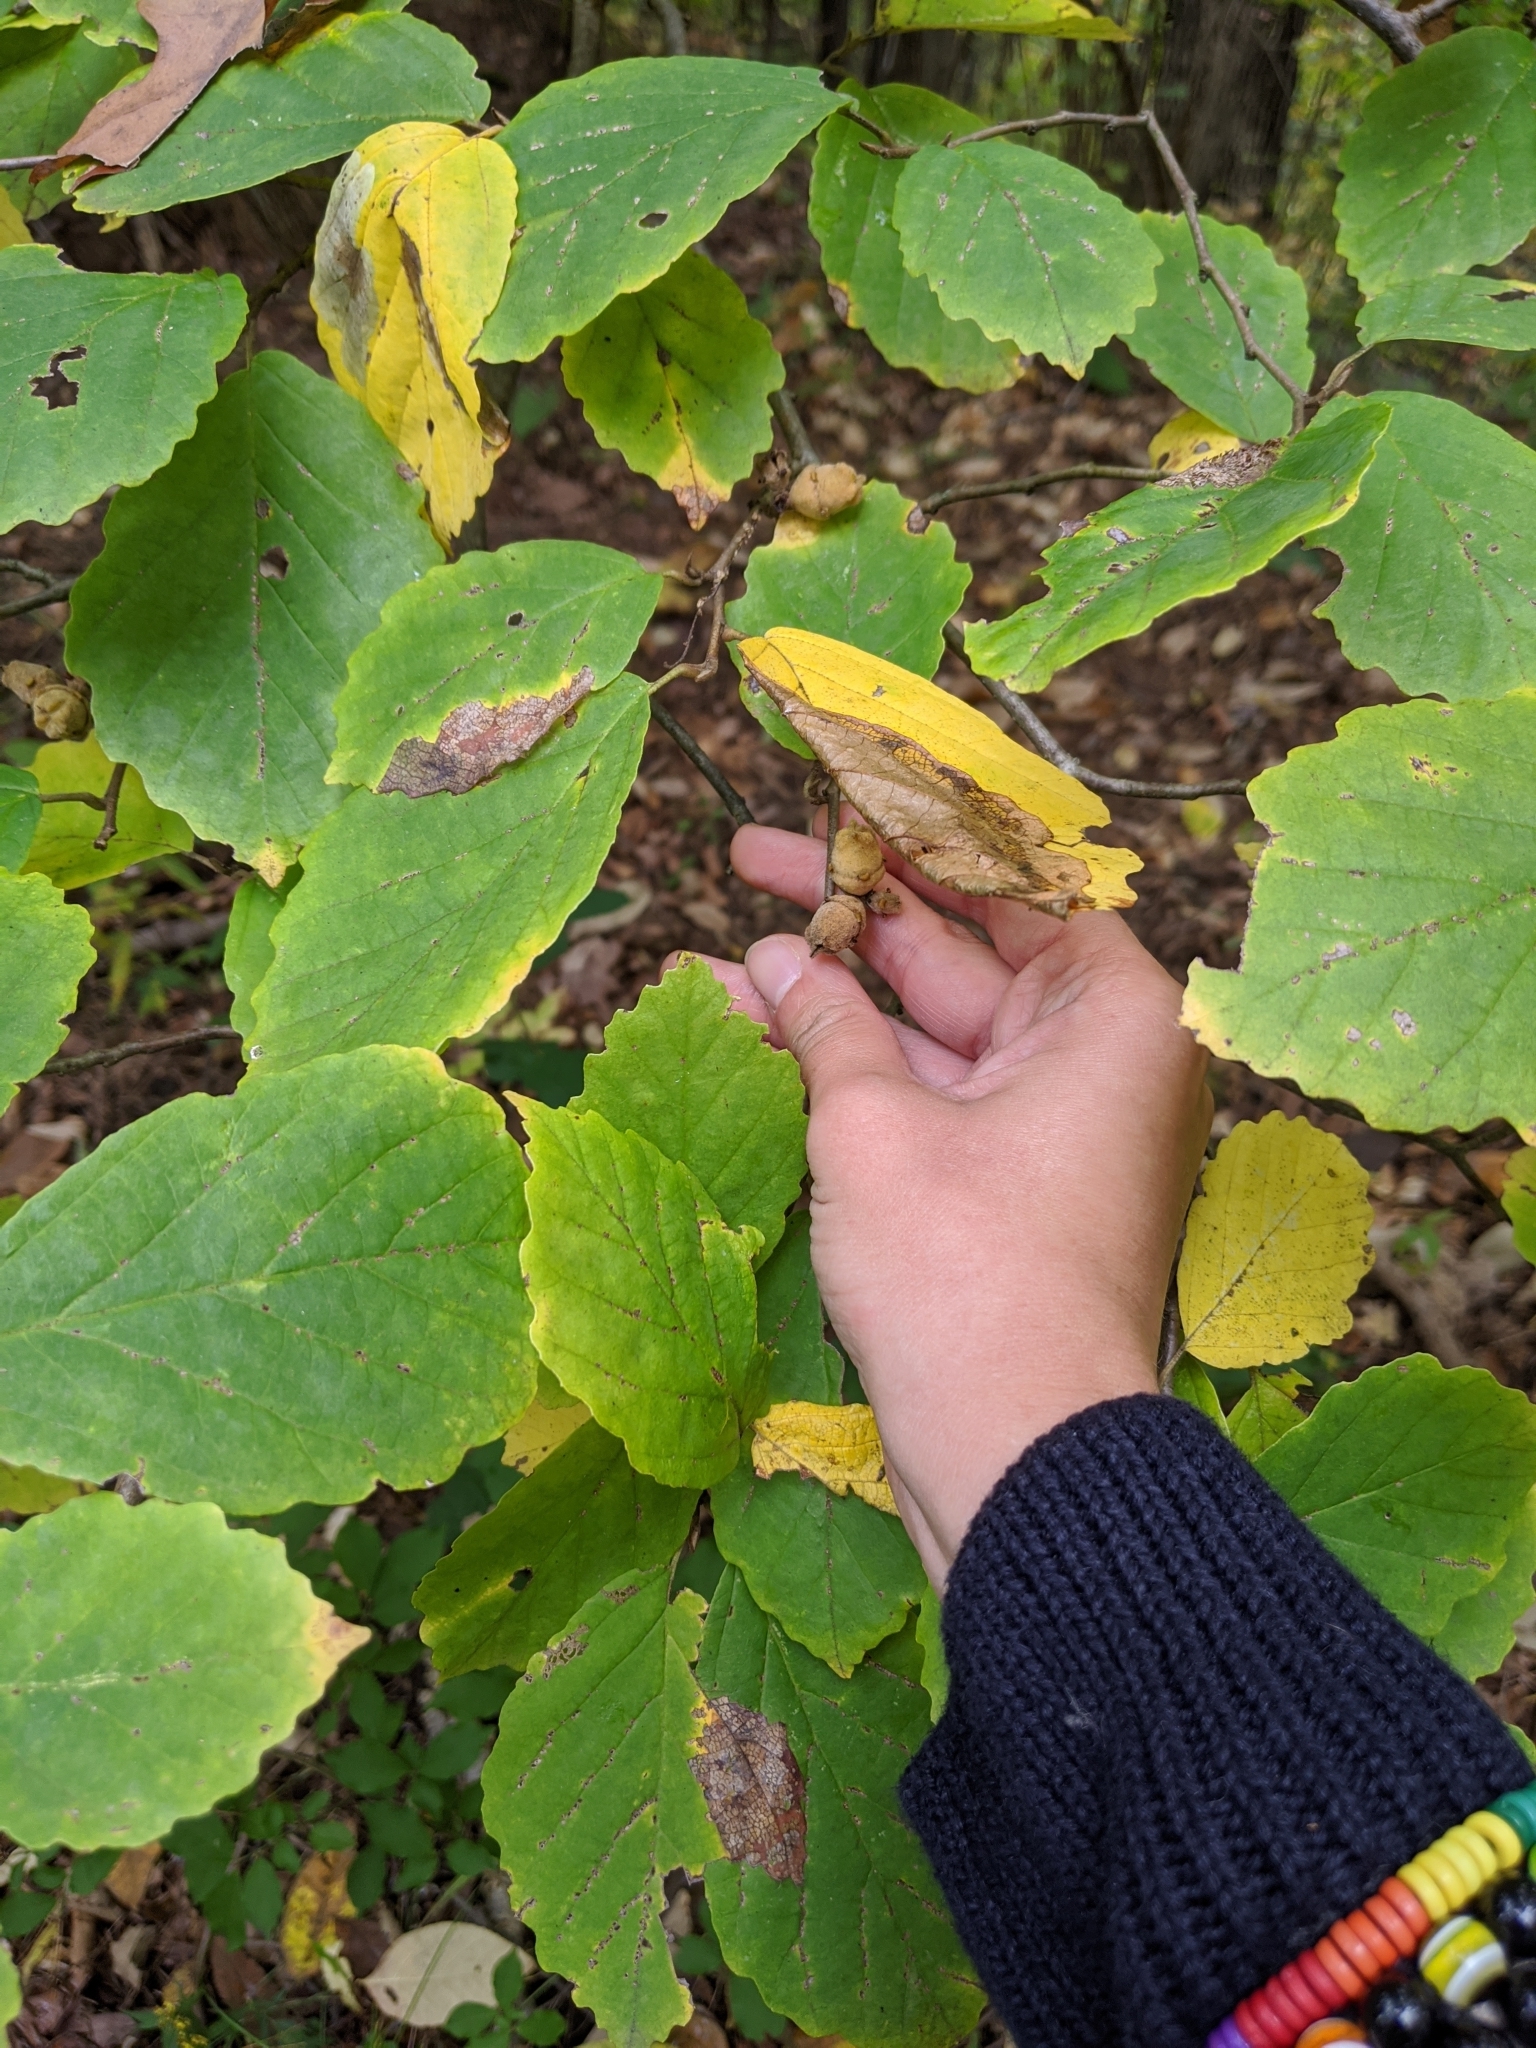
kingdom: Plantae
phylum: Tracheophyta
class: Magnoliopsida
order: Saxifragales
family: Hamamelidaceae
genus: Hamamelis
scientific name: Hamamelis virginiana
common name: Witch-hazel
